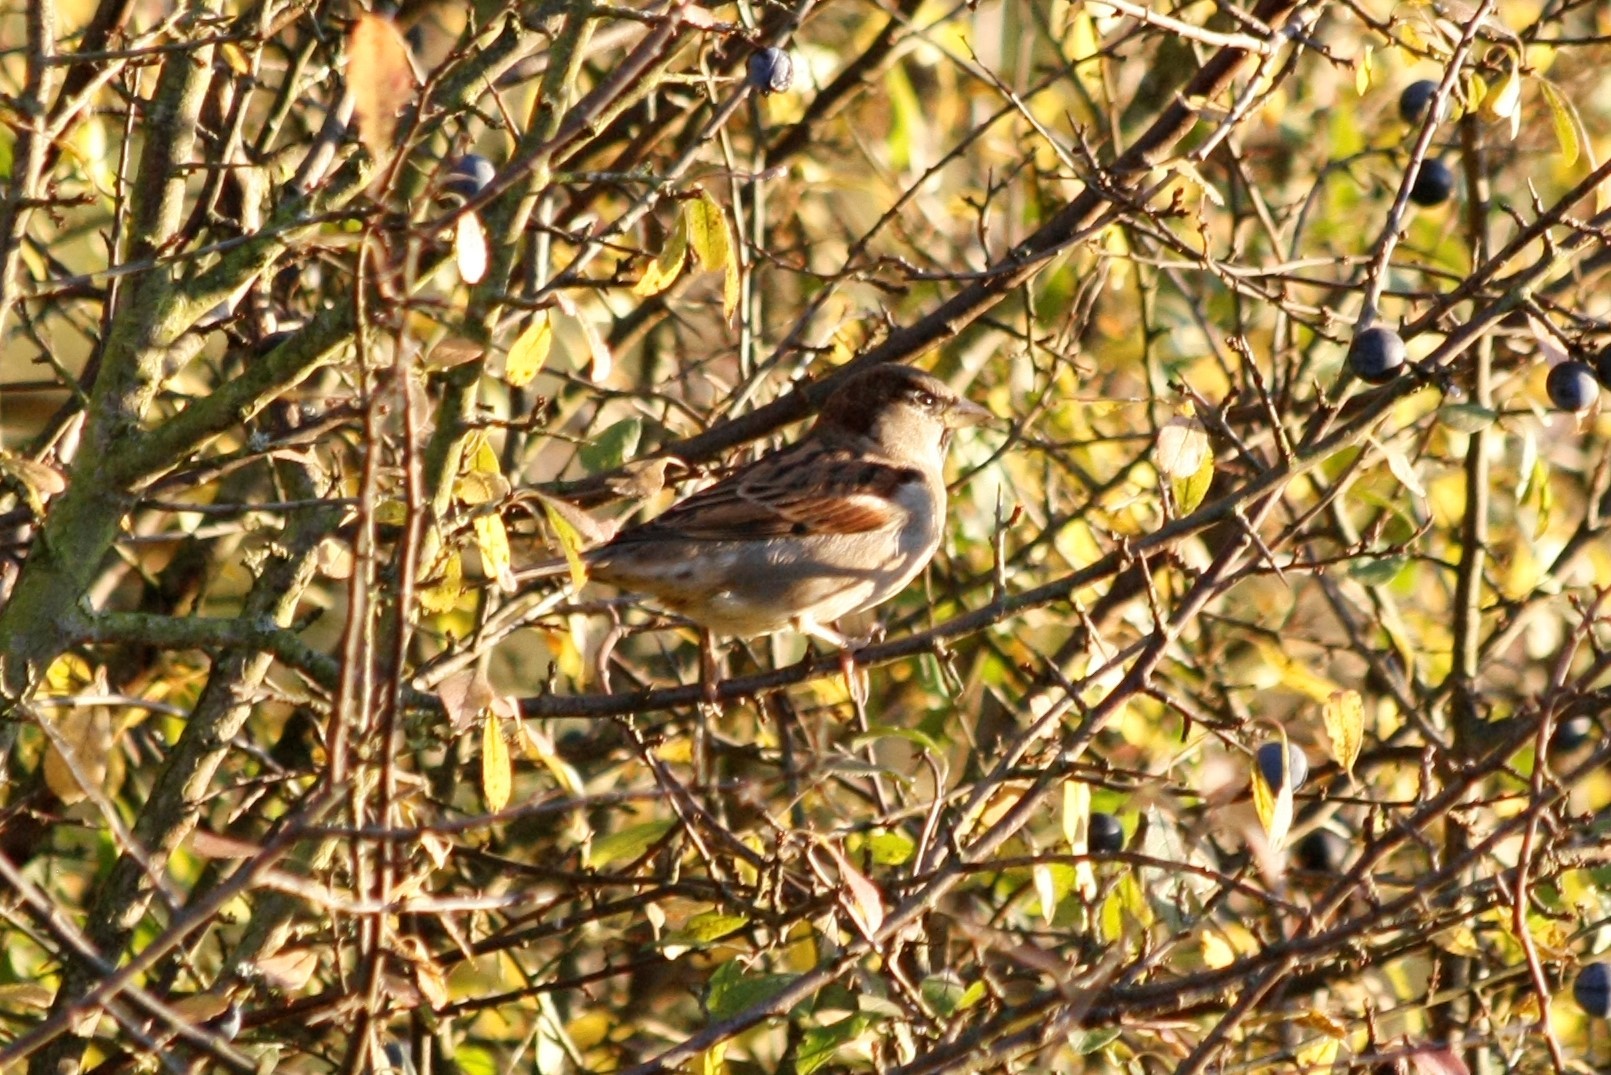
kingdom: Animalia
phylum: Chordata
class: Aves
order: Passeriformes
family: Passeridae
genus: Passer
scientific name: Passer domesticus
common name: House sparrow
